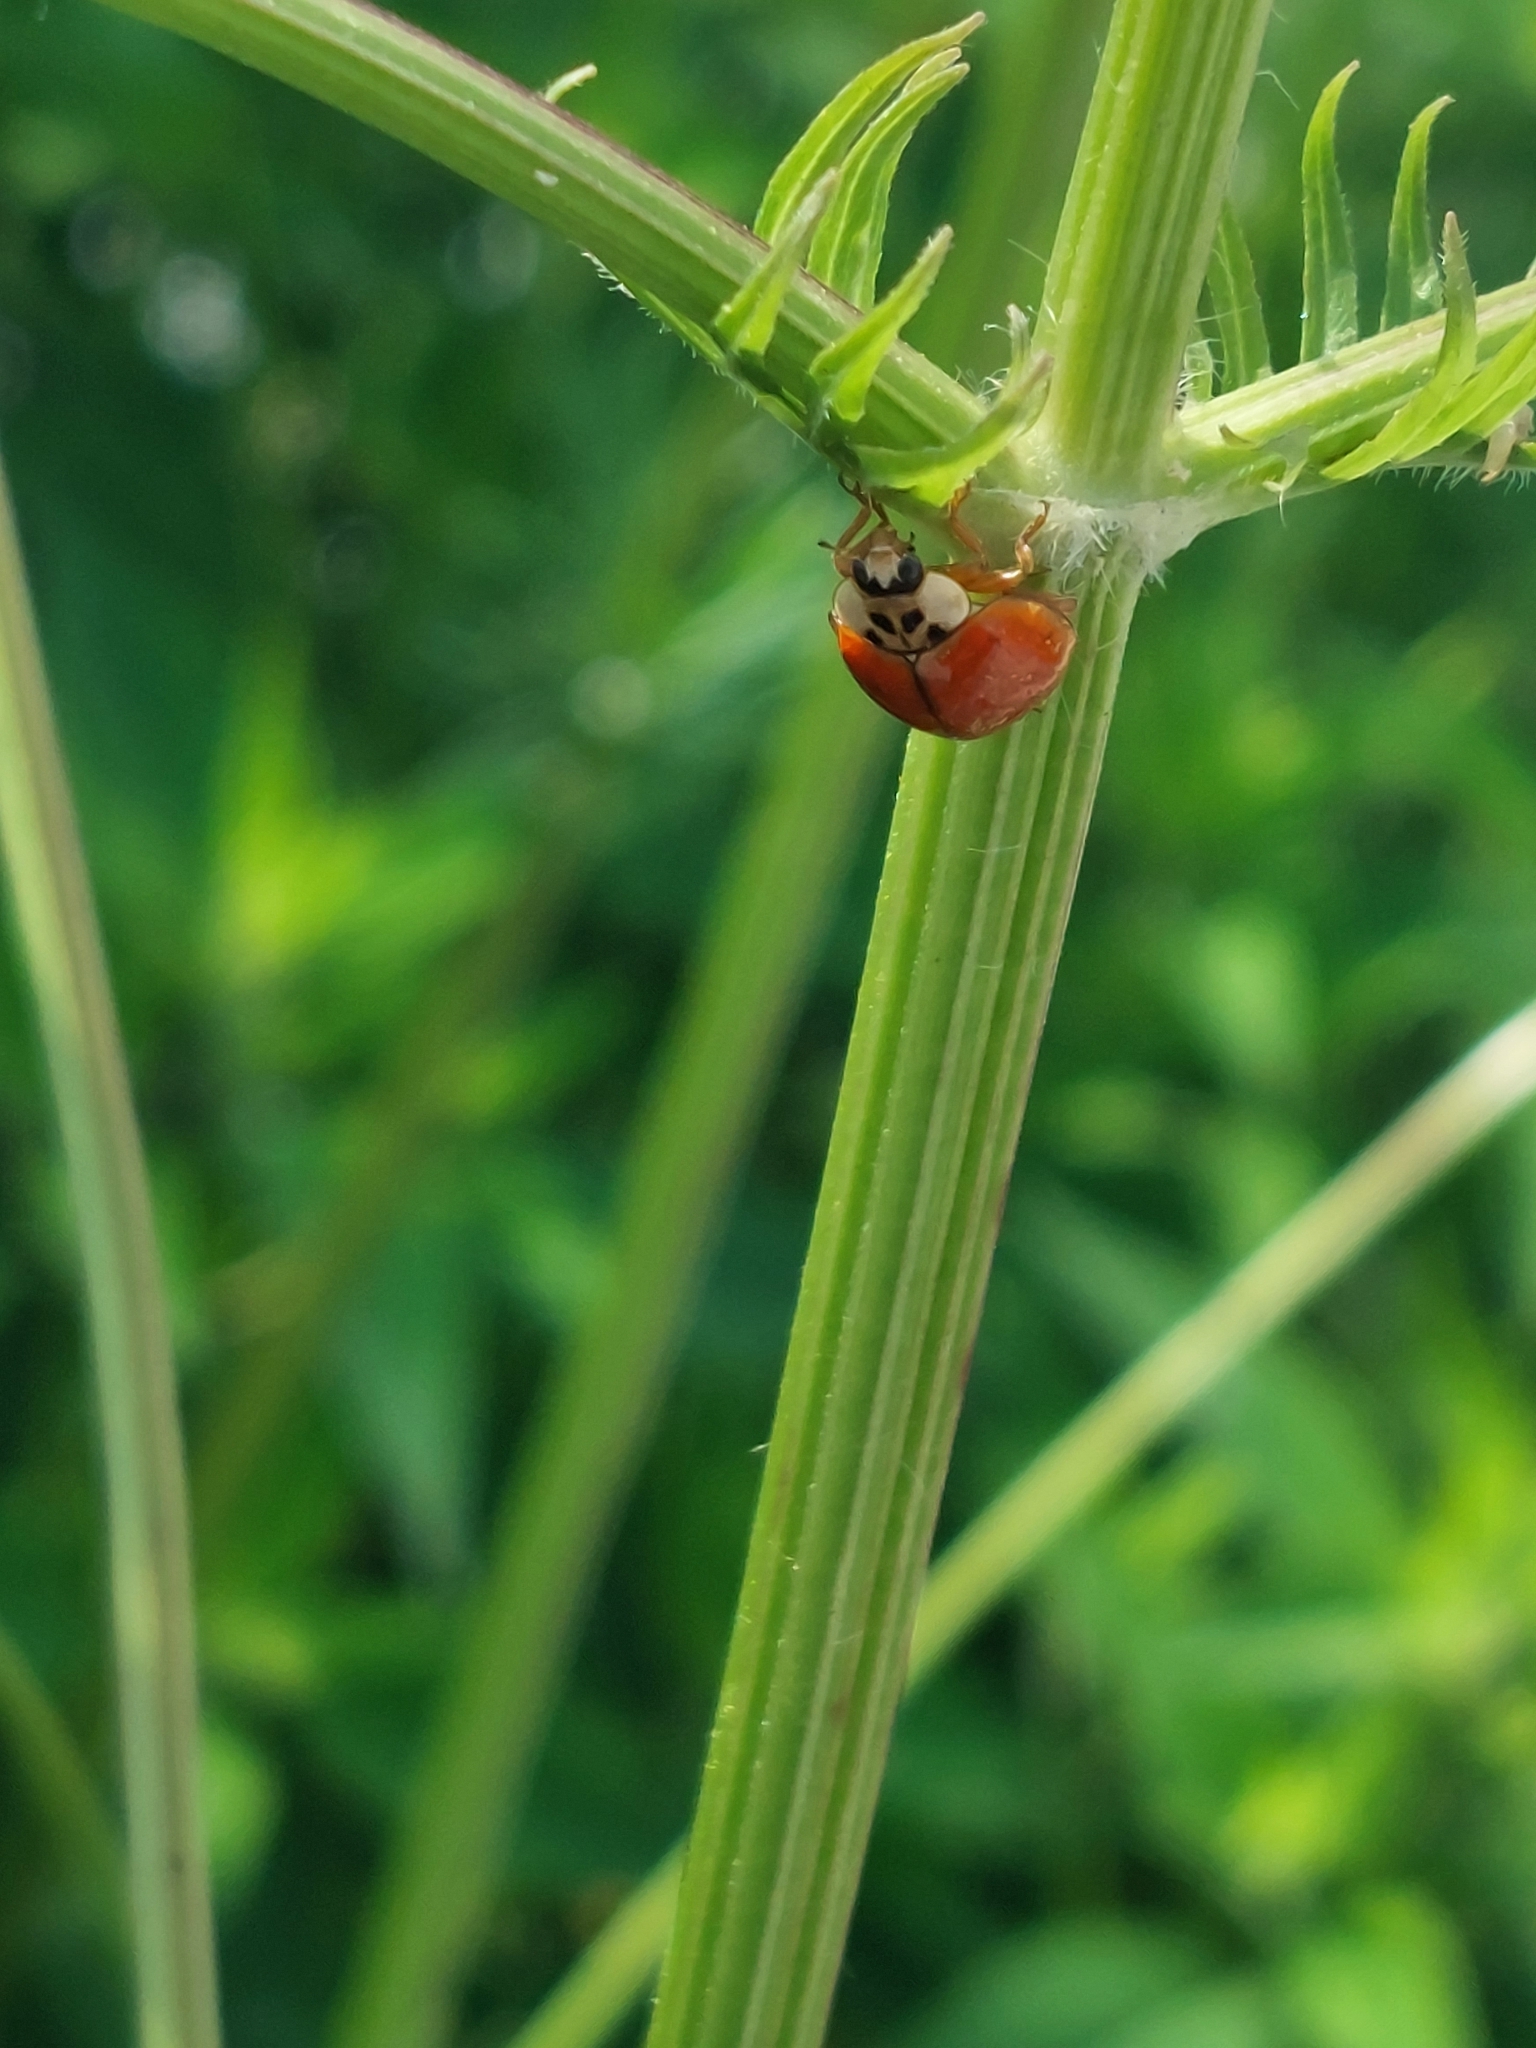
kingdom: Animalia
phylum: Arthropoda
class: Insecta
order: Coleoptera
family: Coccinellidae
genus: Harmonia
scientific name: Harmonia axyridis
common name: Harlequin ladybird
